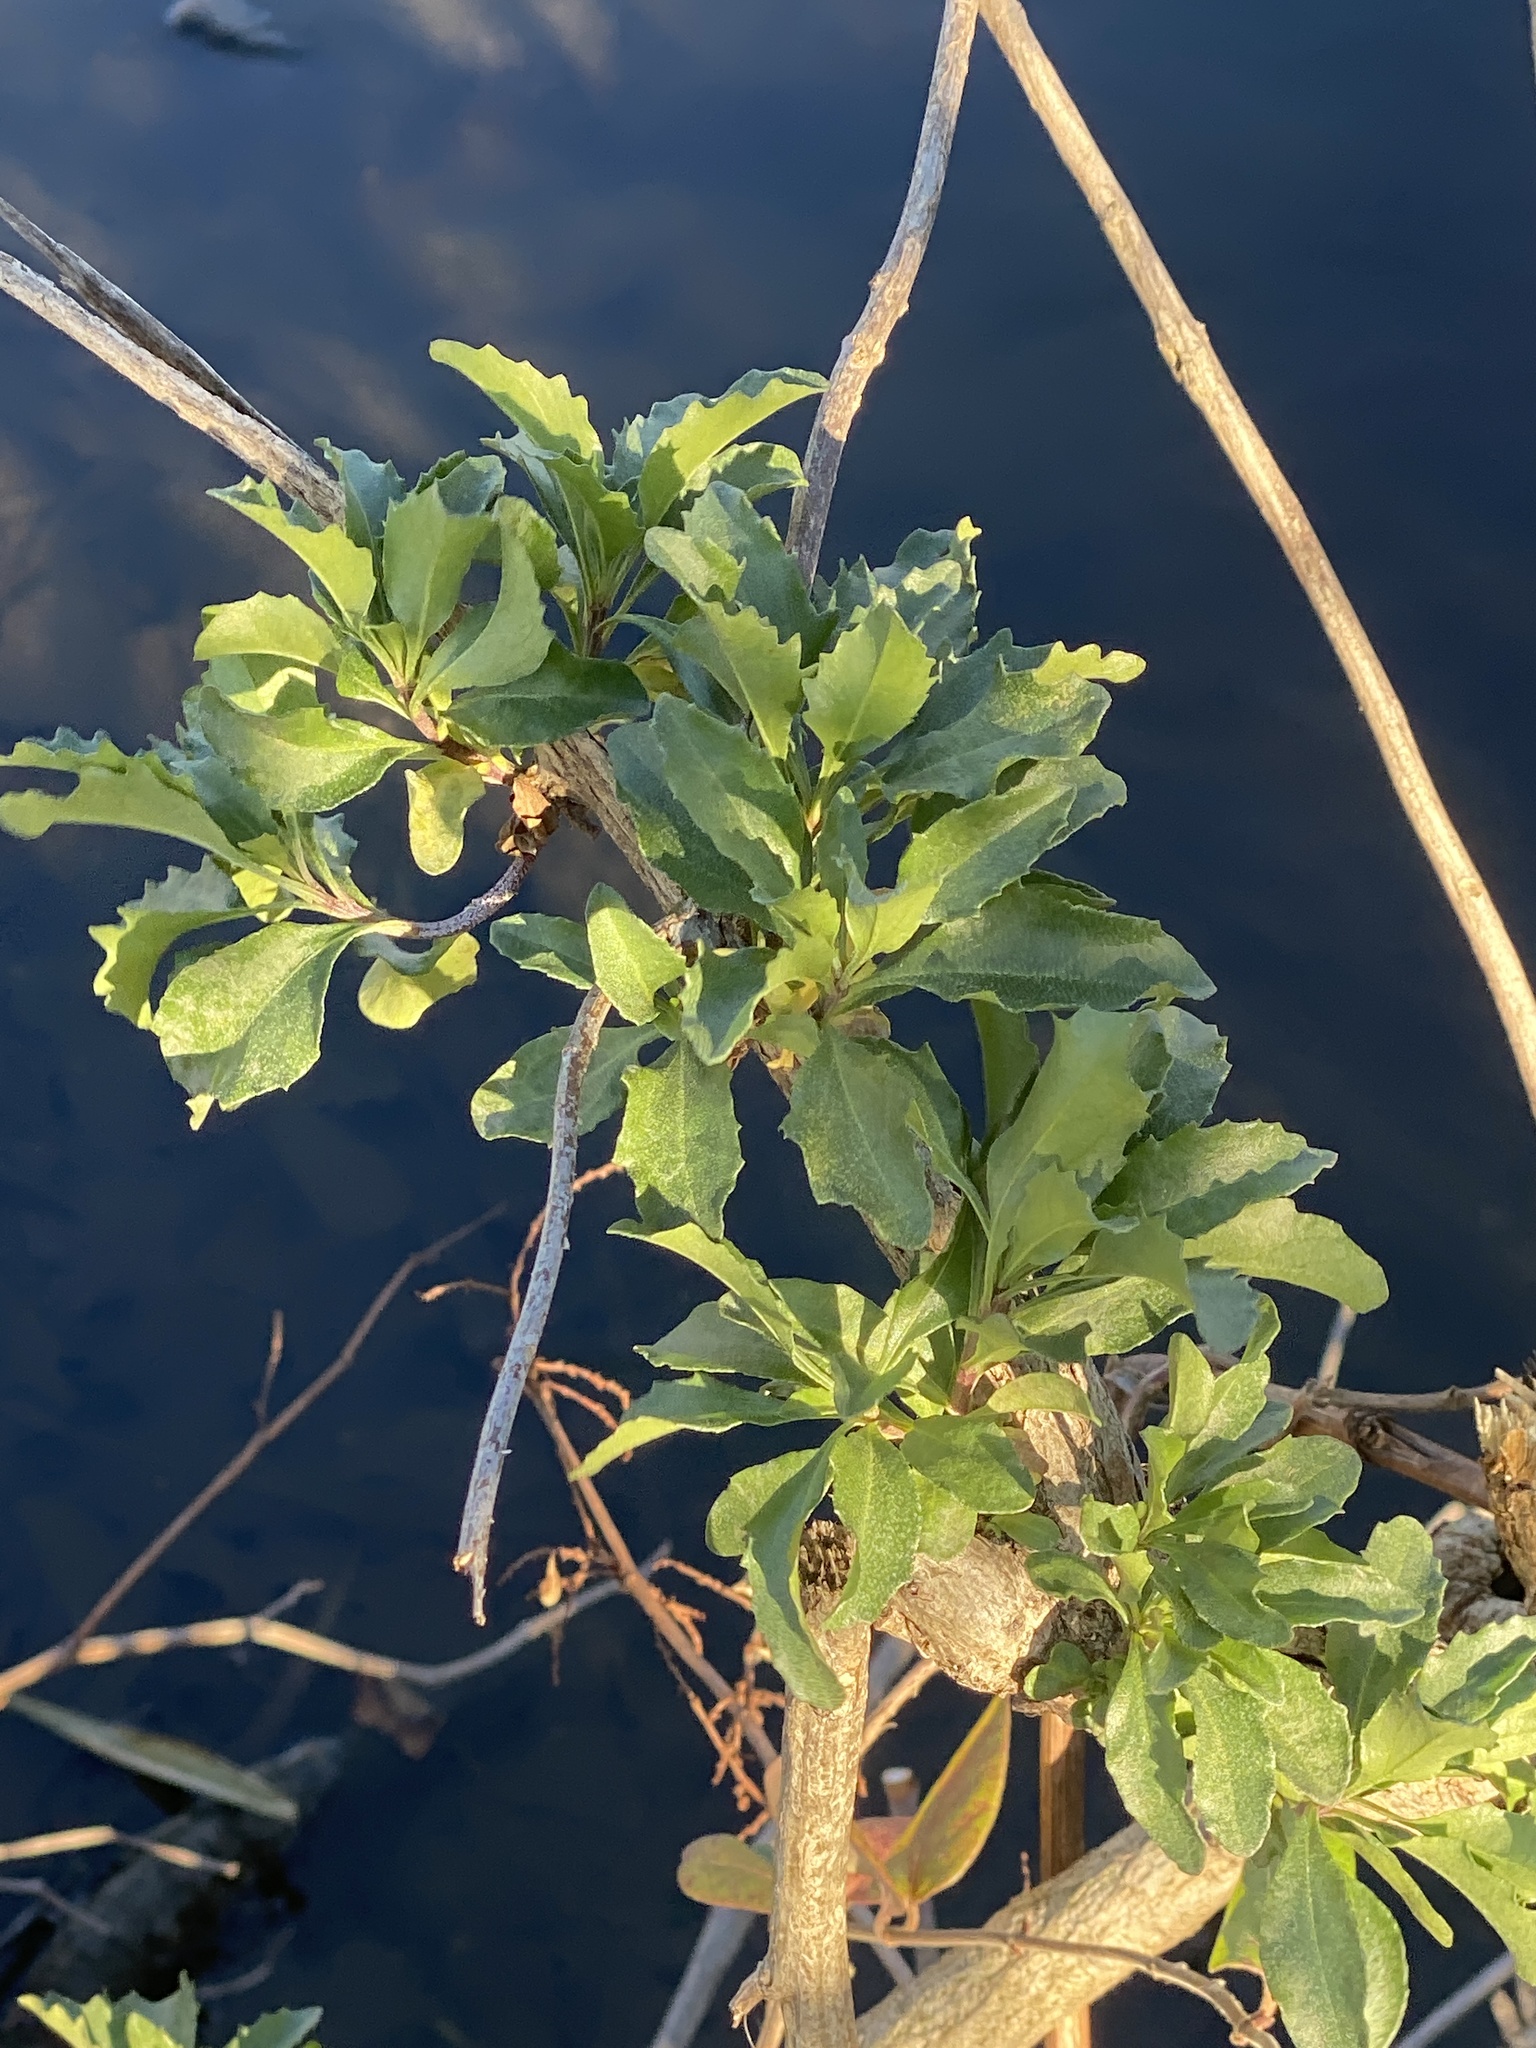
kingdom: Plantae
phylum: Tracheophyta
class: Magnoliopsida
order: Asterales
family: Asteraceae
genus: Baccharis
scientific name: Baccharis halimifolia
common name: Eastern baccharis
